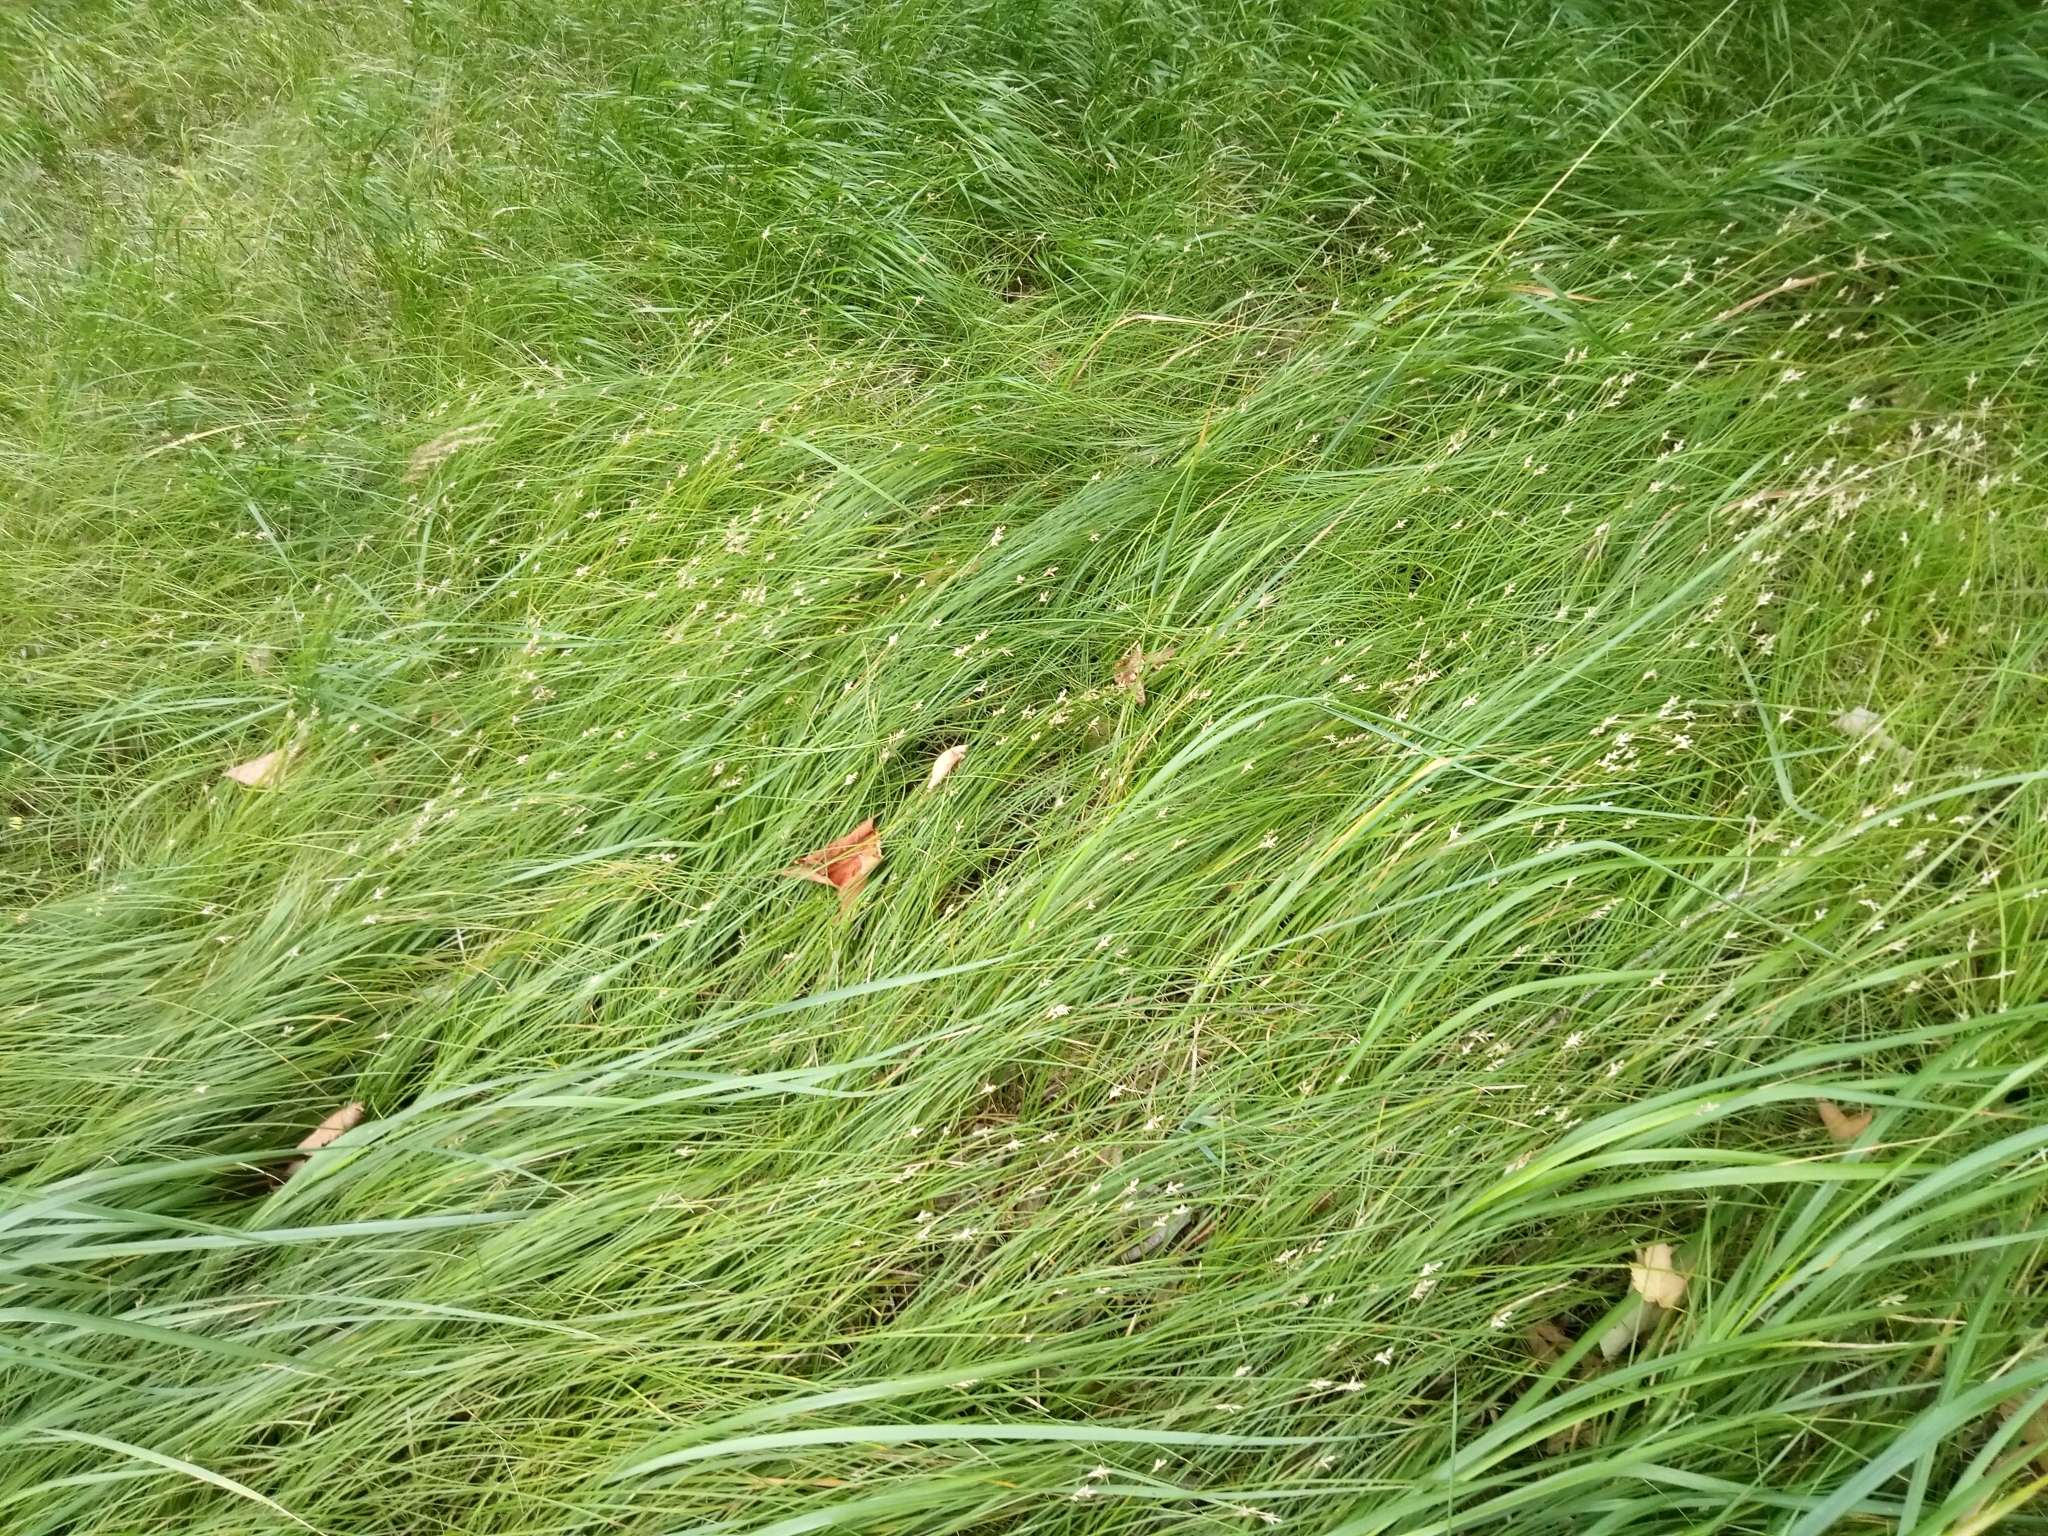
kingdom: Plantae
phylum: Tracheophyta
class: Liliopsida
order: Poales
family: Cyperaceae
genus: Carex
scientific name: Carex brizoides
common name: Quaking-grass sedge
